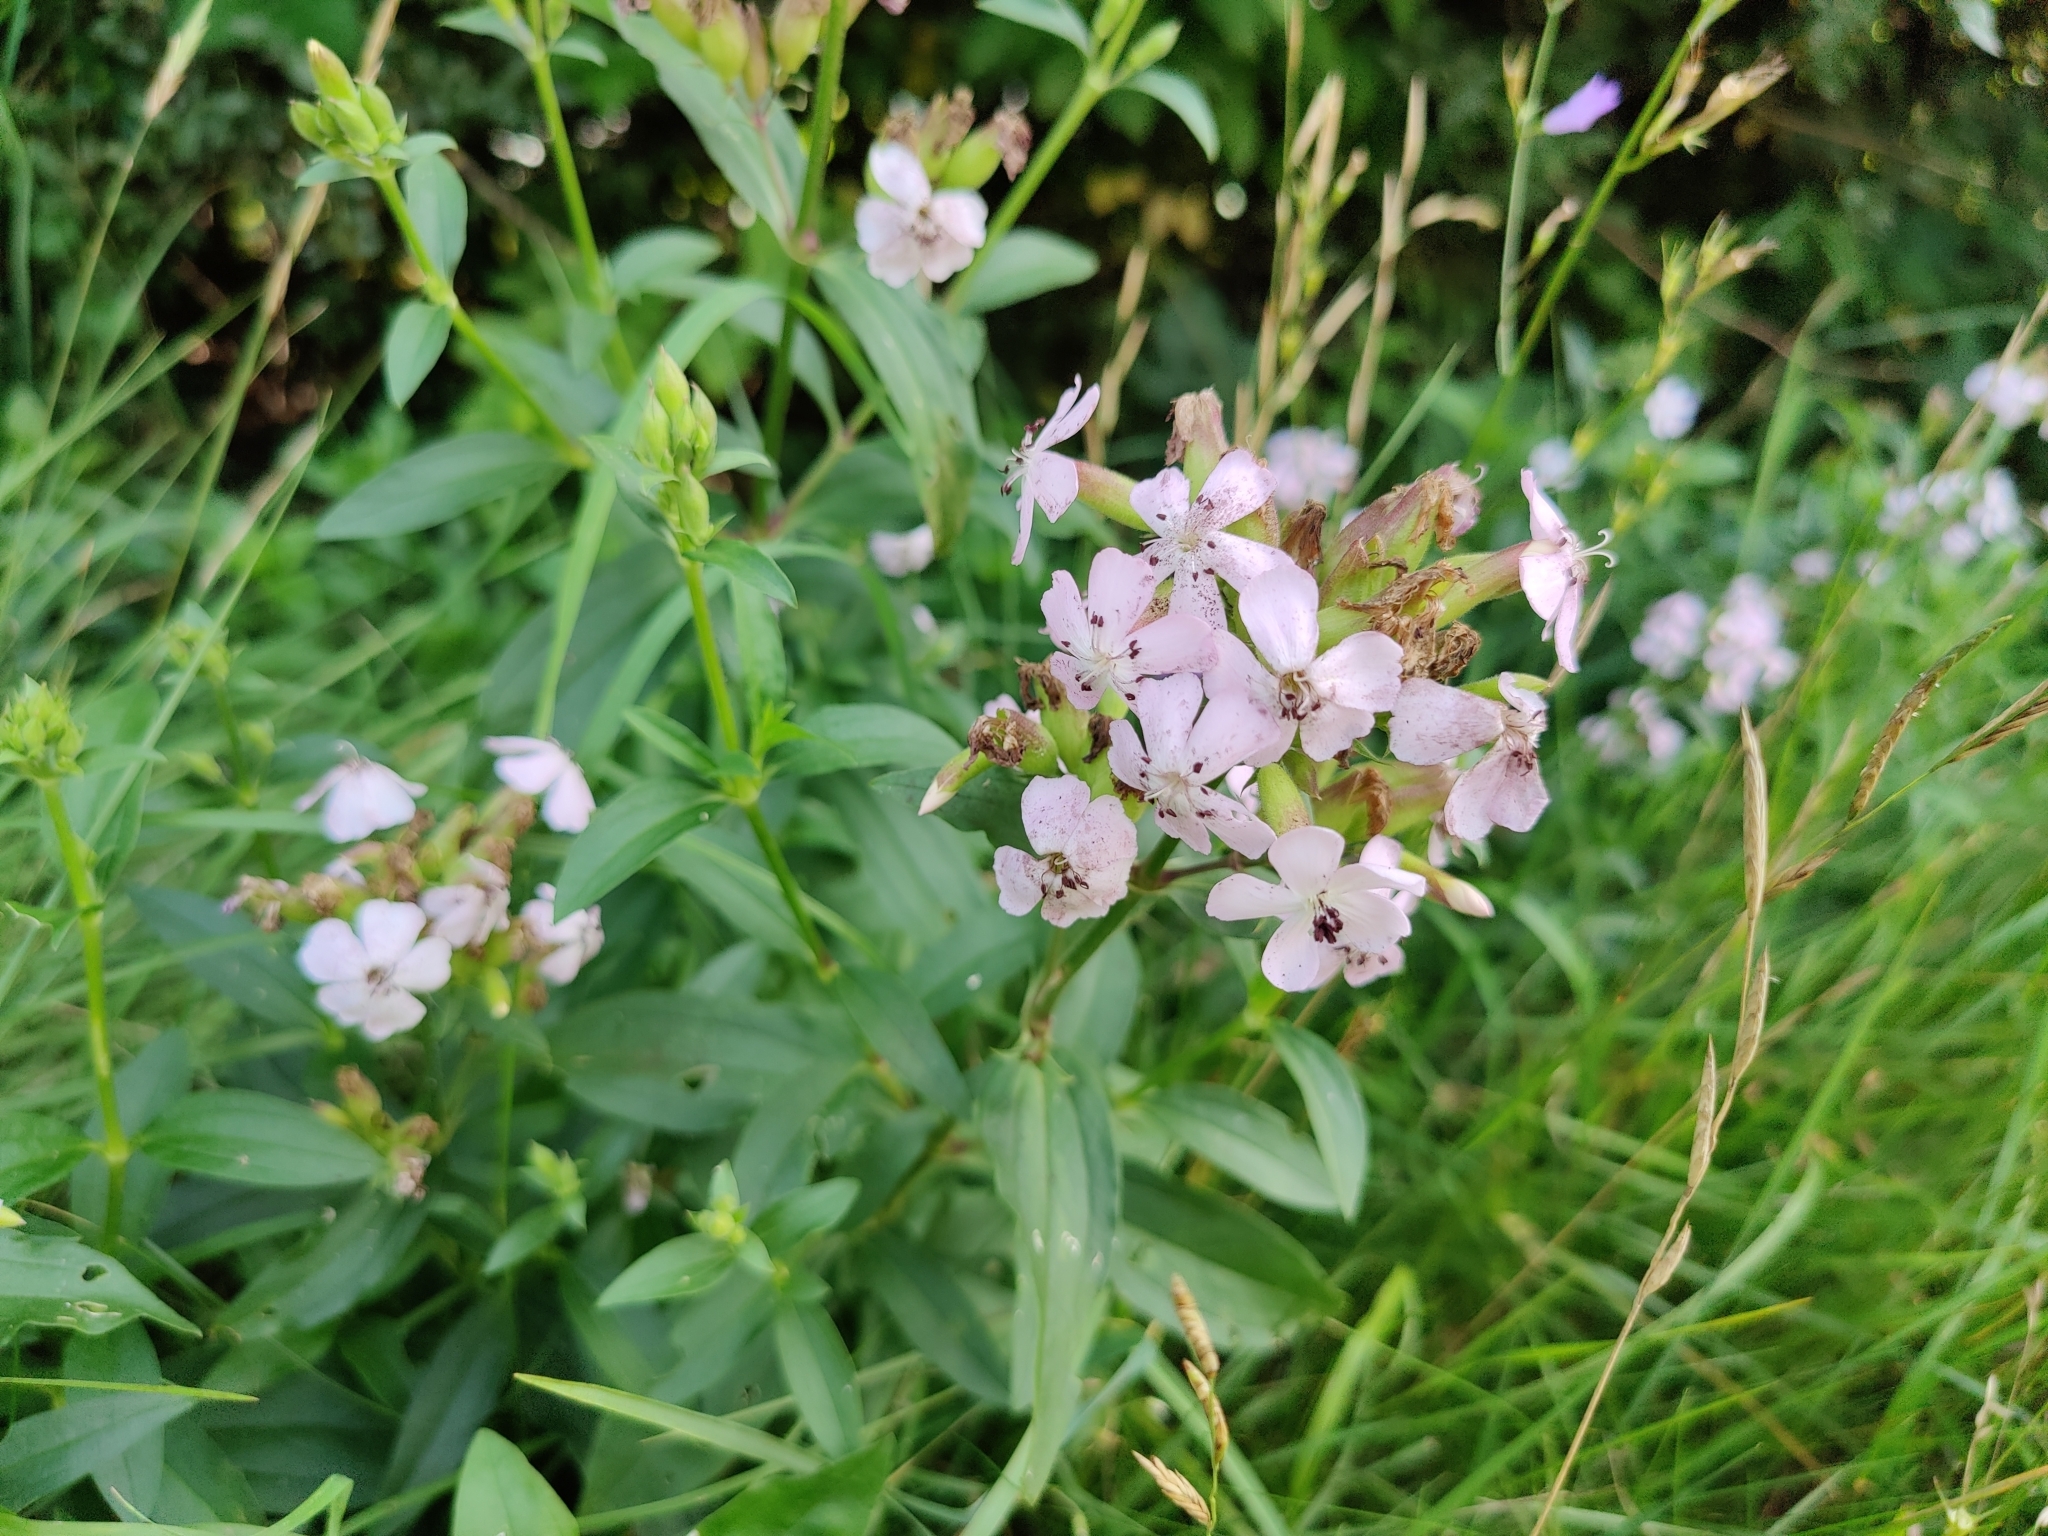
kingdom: Plantae
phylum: Tracheophyta
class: Magnoliopsida
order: Caryophyllales
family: Caryophyllaceae
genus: Saponaria
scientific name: Saponaria officinalis
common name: Soapwort
